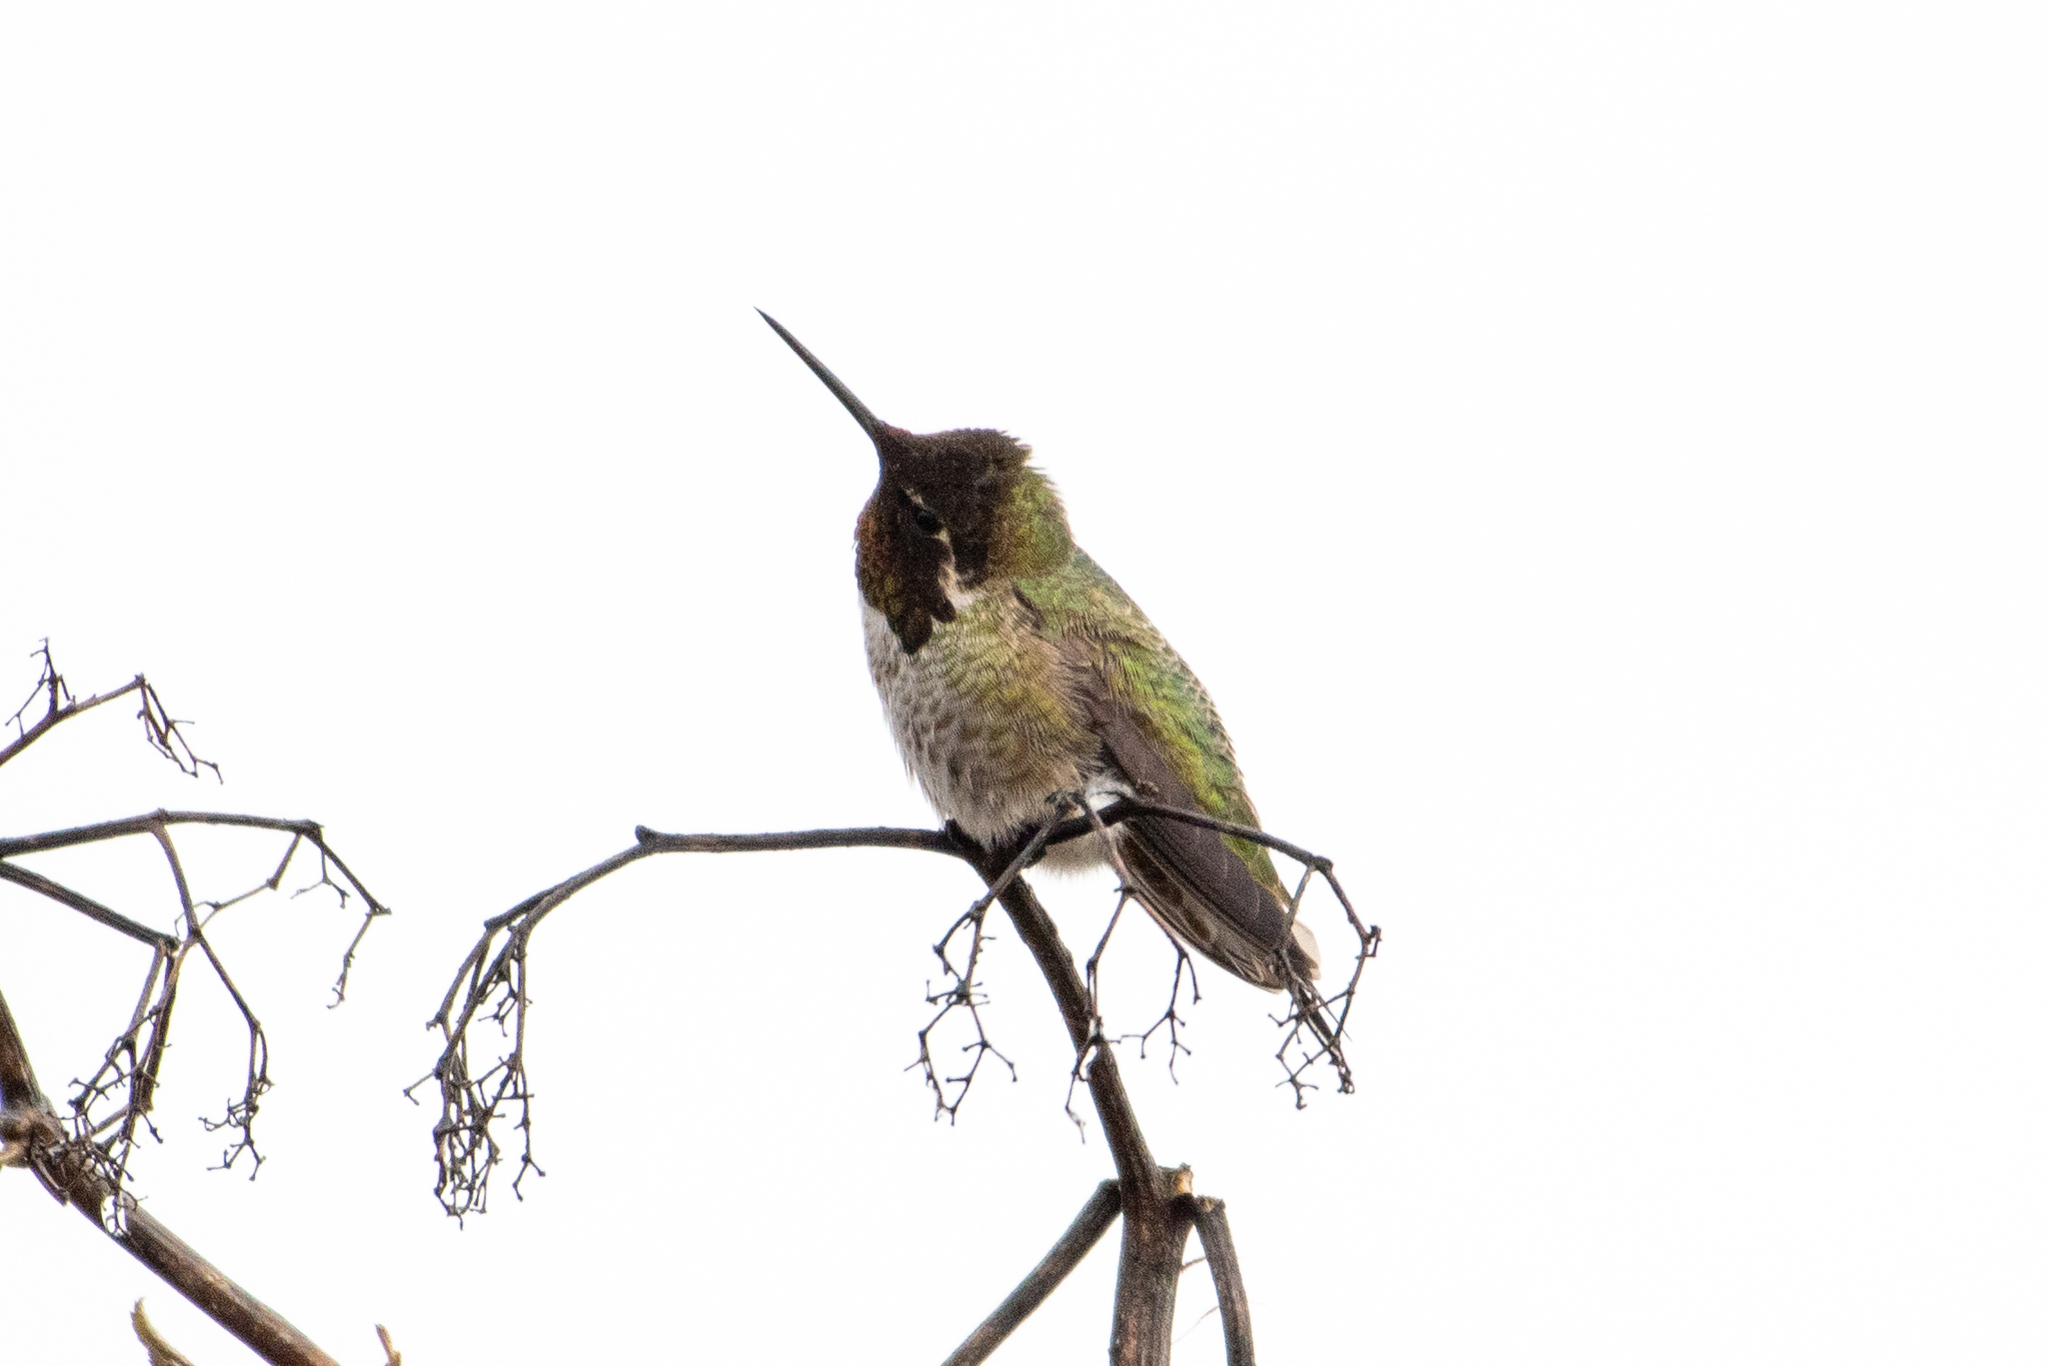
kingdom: Animalia
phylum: Chordata
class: Aves
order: Apodiformes
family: Trochilidae
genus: Calypte
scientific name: Calypte anna
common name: Anna's hummingbird
